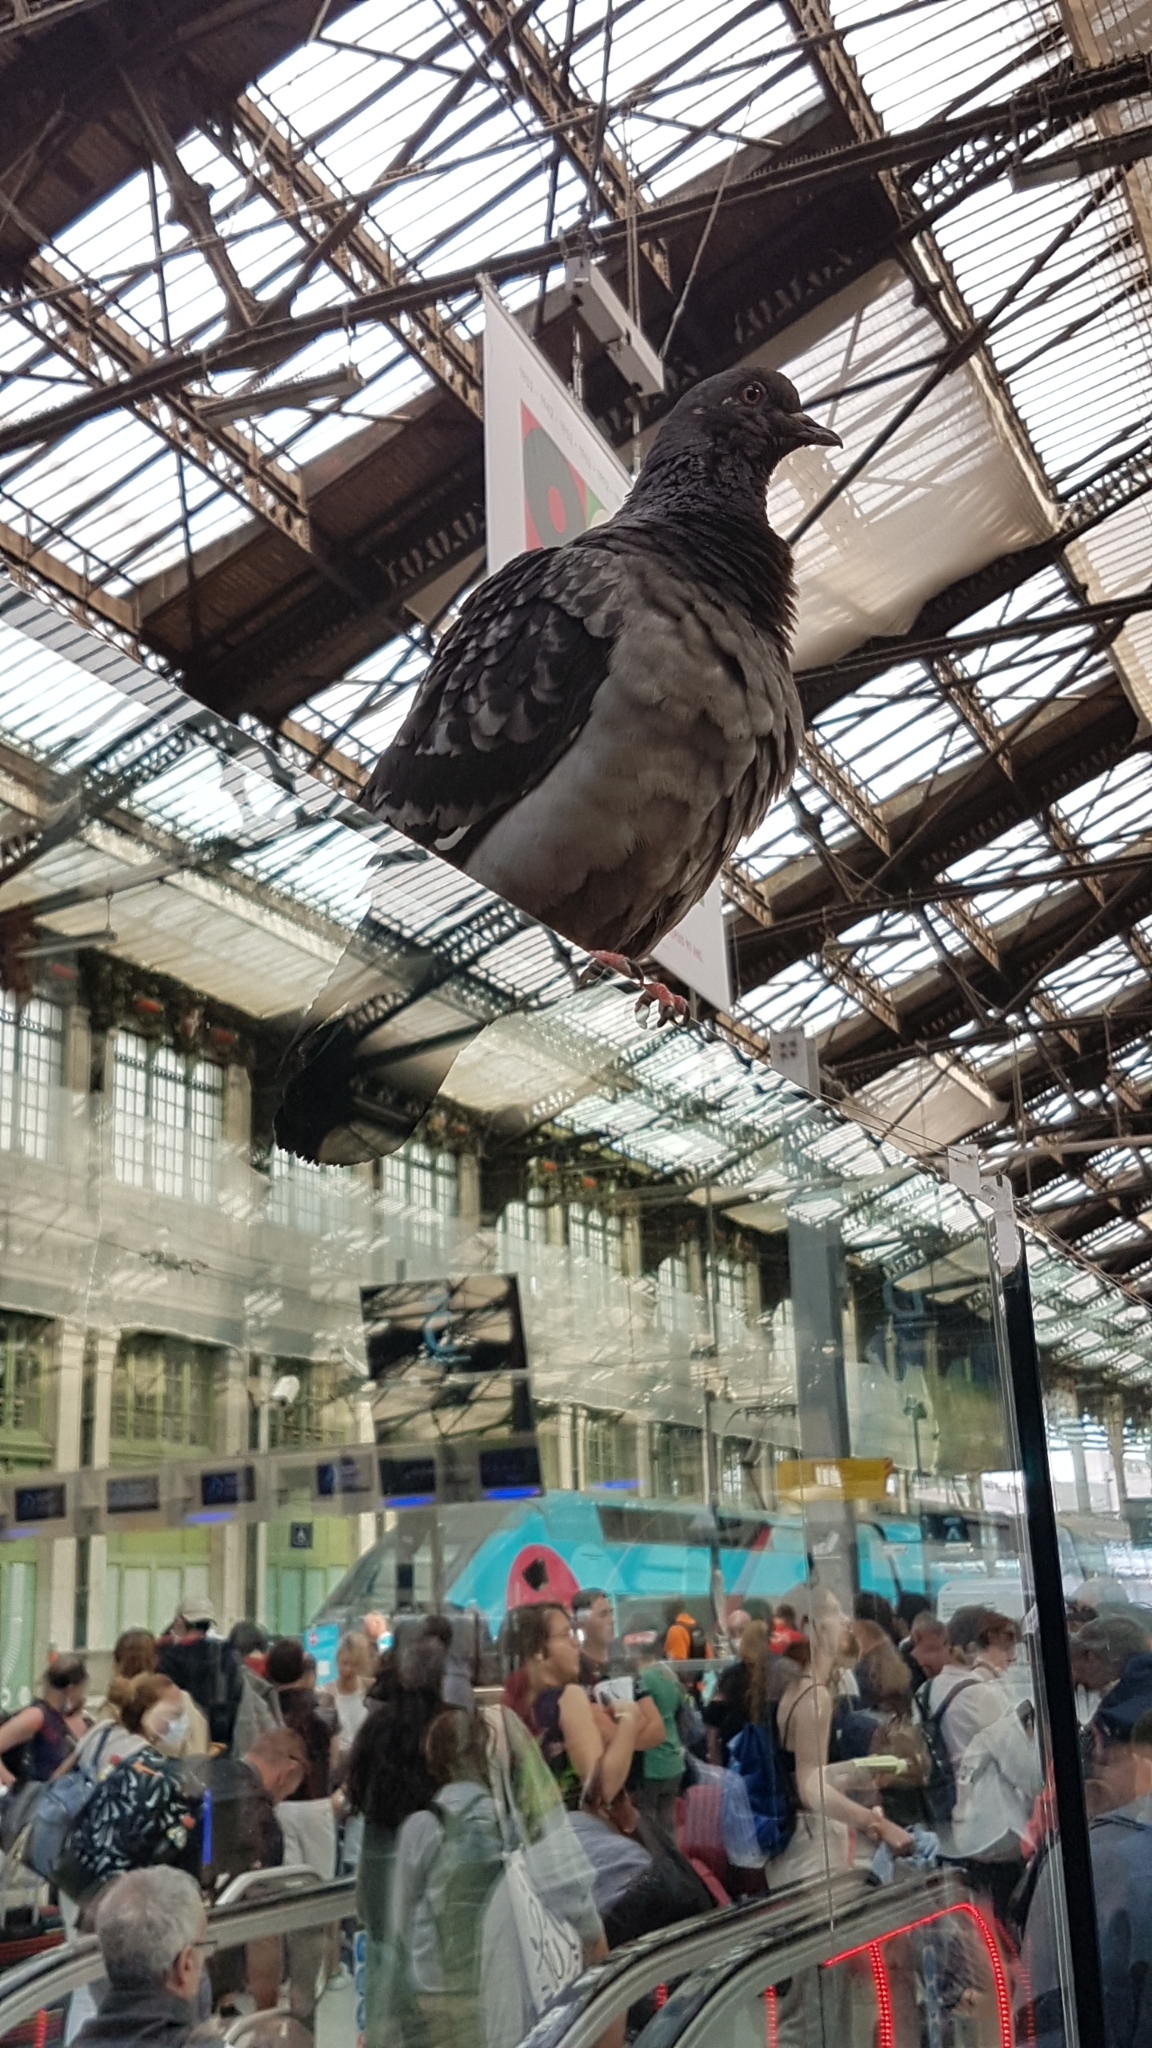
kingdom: Animalia
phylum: Chordata
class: Aves
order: Columbiformes
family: Columbidae
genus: Columba
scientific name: Columba livia
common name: Rock pigeon
